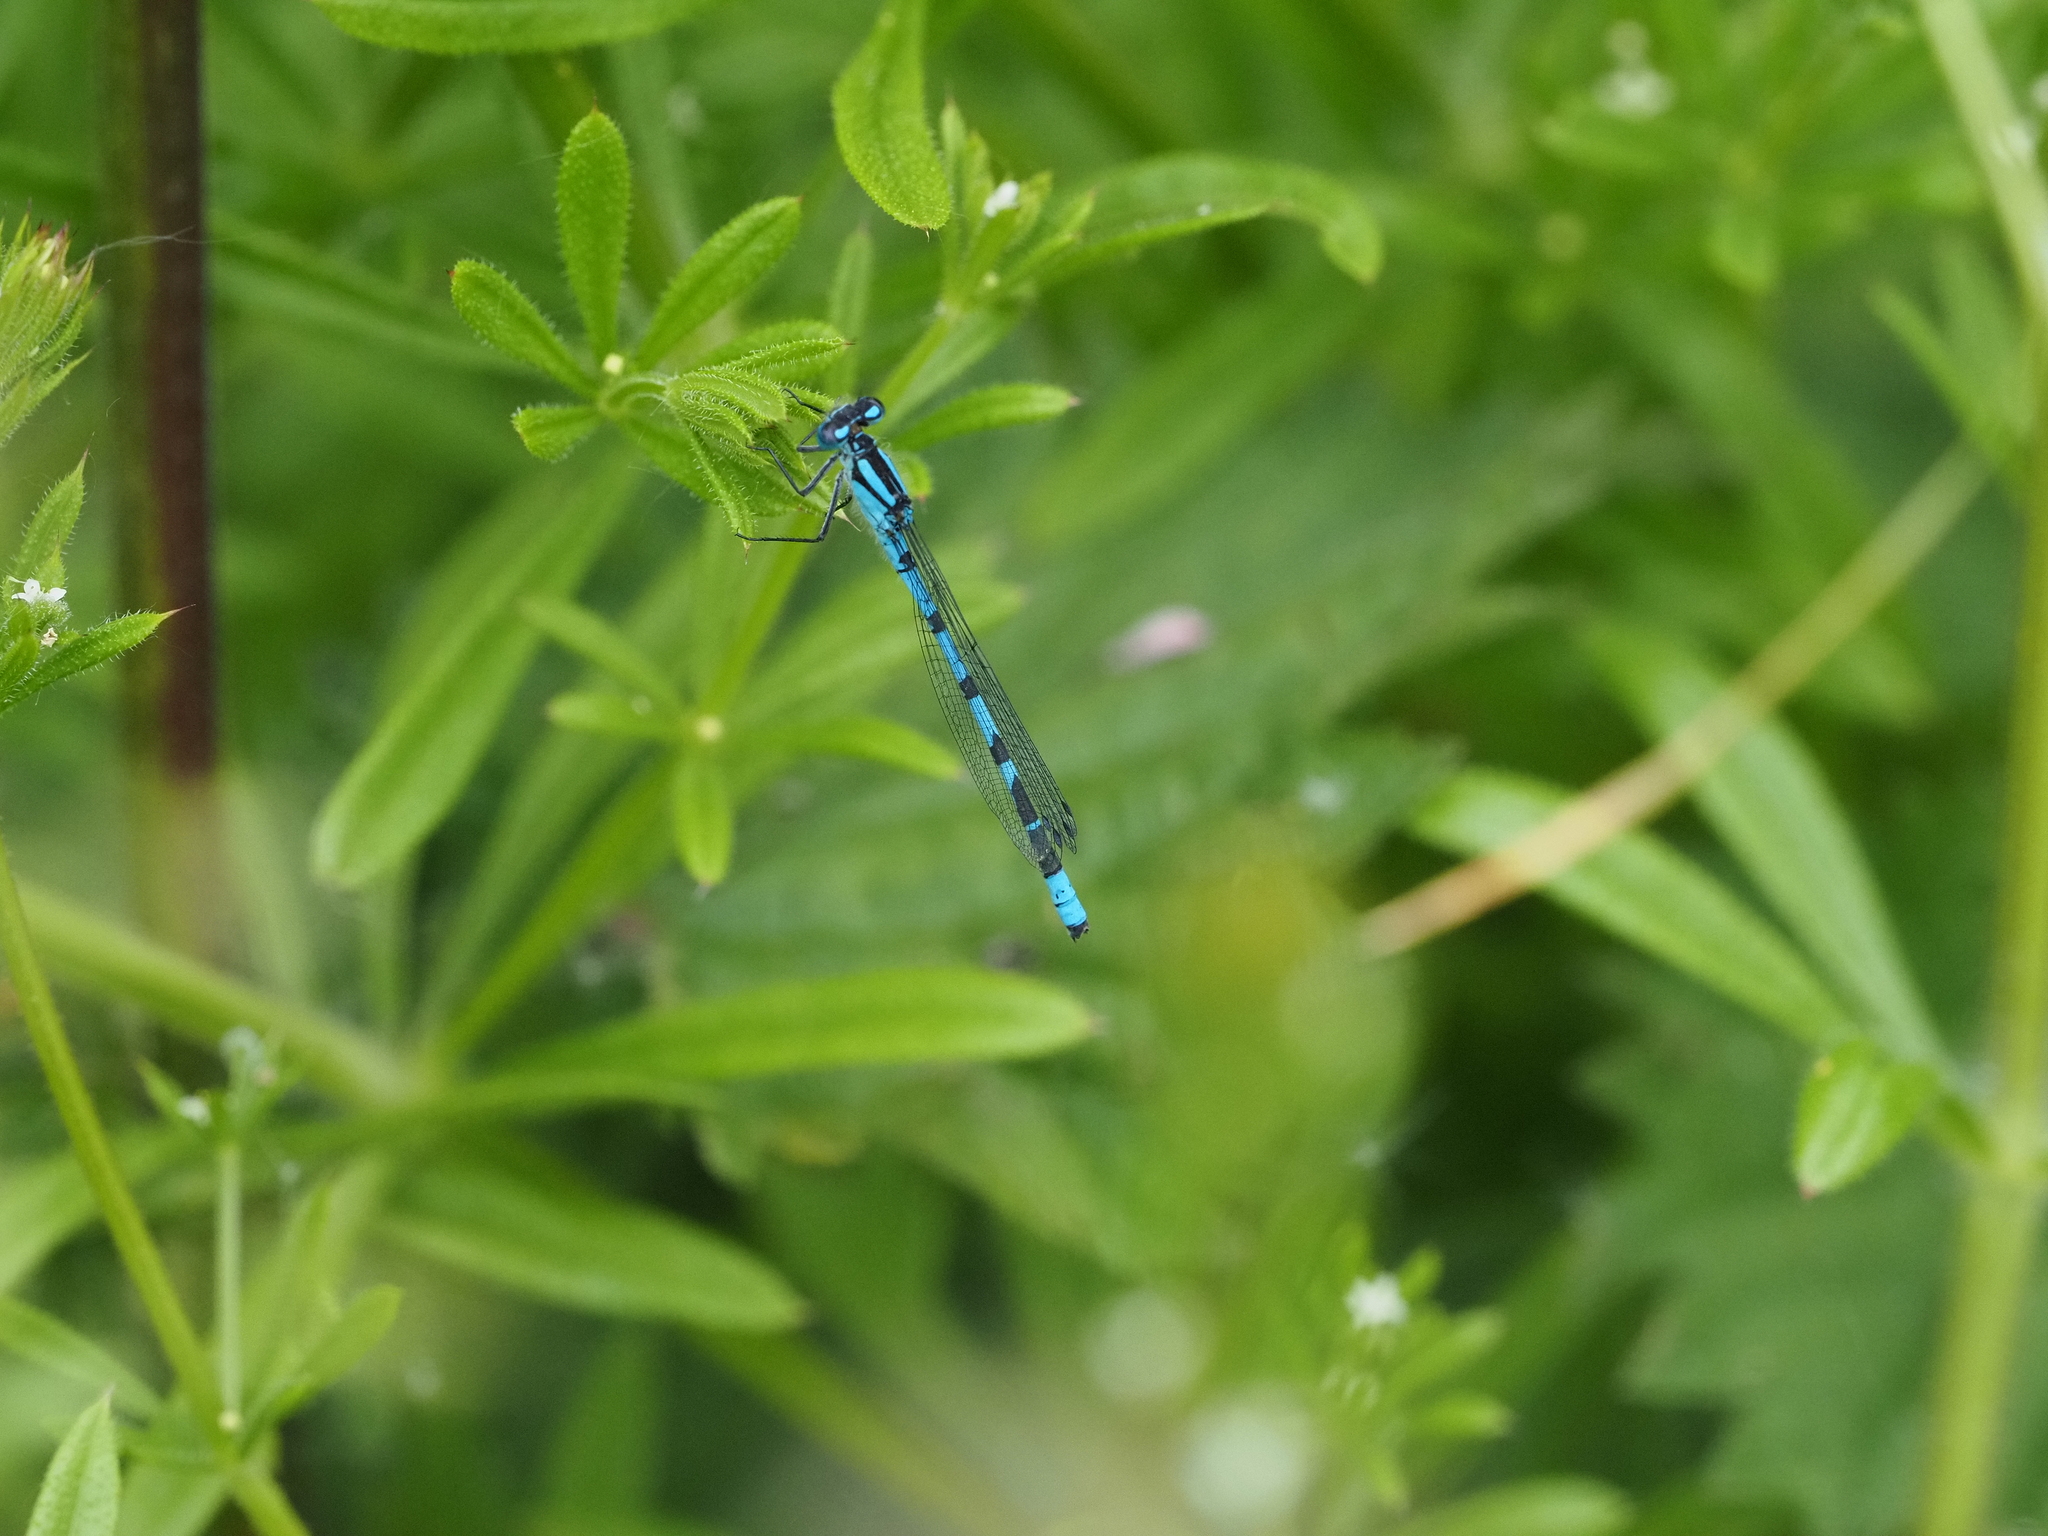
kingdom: Animalia
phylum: Arthropoda
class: Insecta
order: Odonata
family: Coenagrionidae
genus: Enallagma
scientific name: Enallagma cyathigerum
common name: Common blue damselfly
